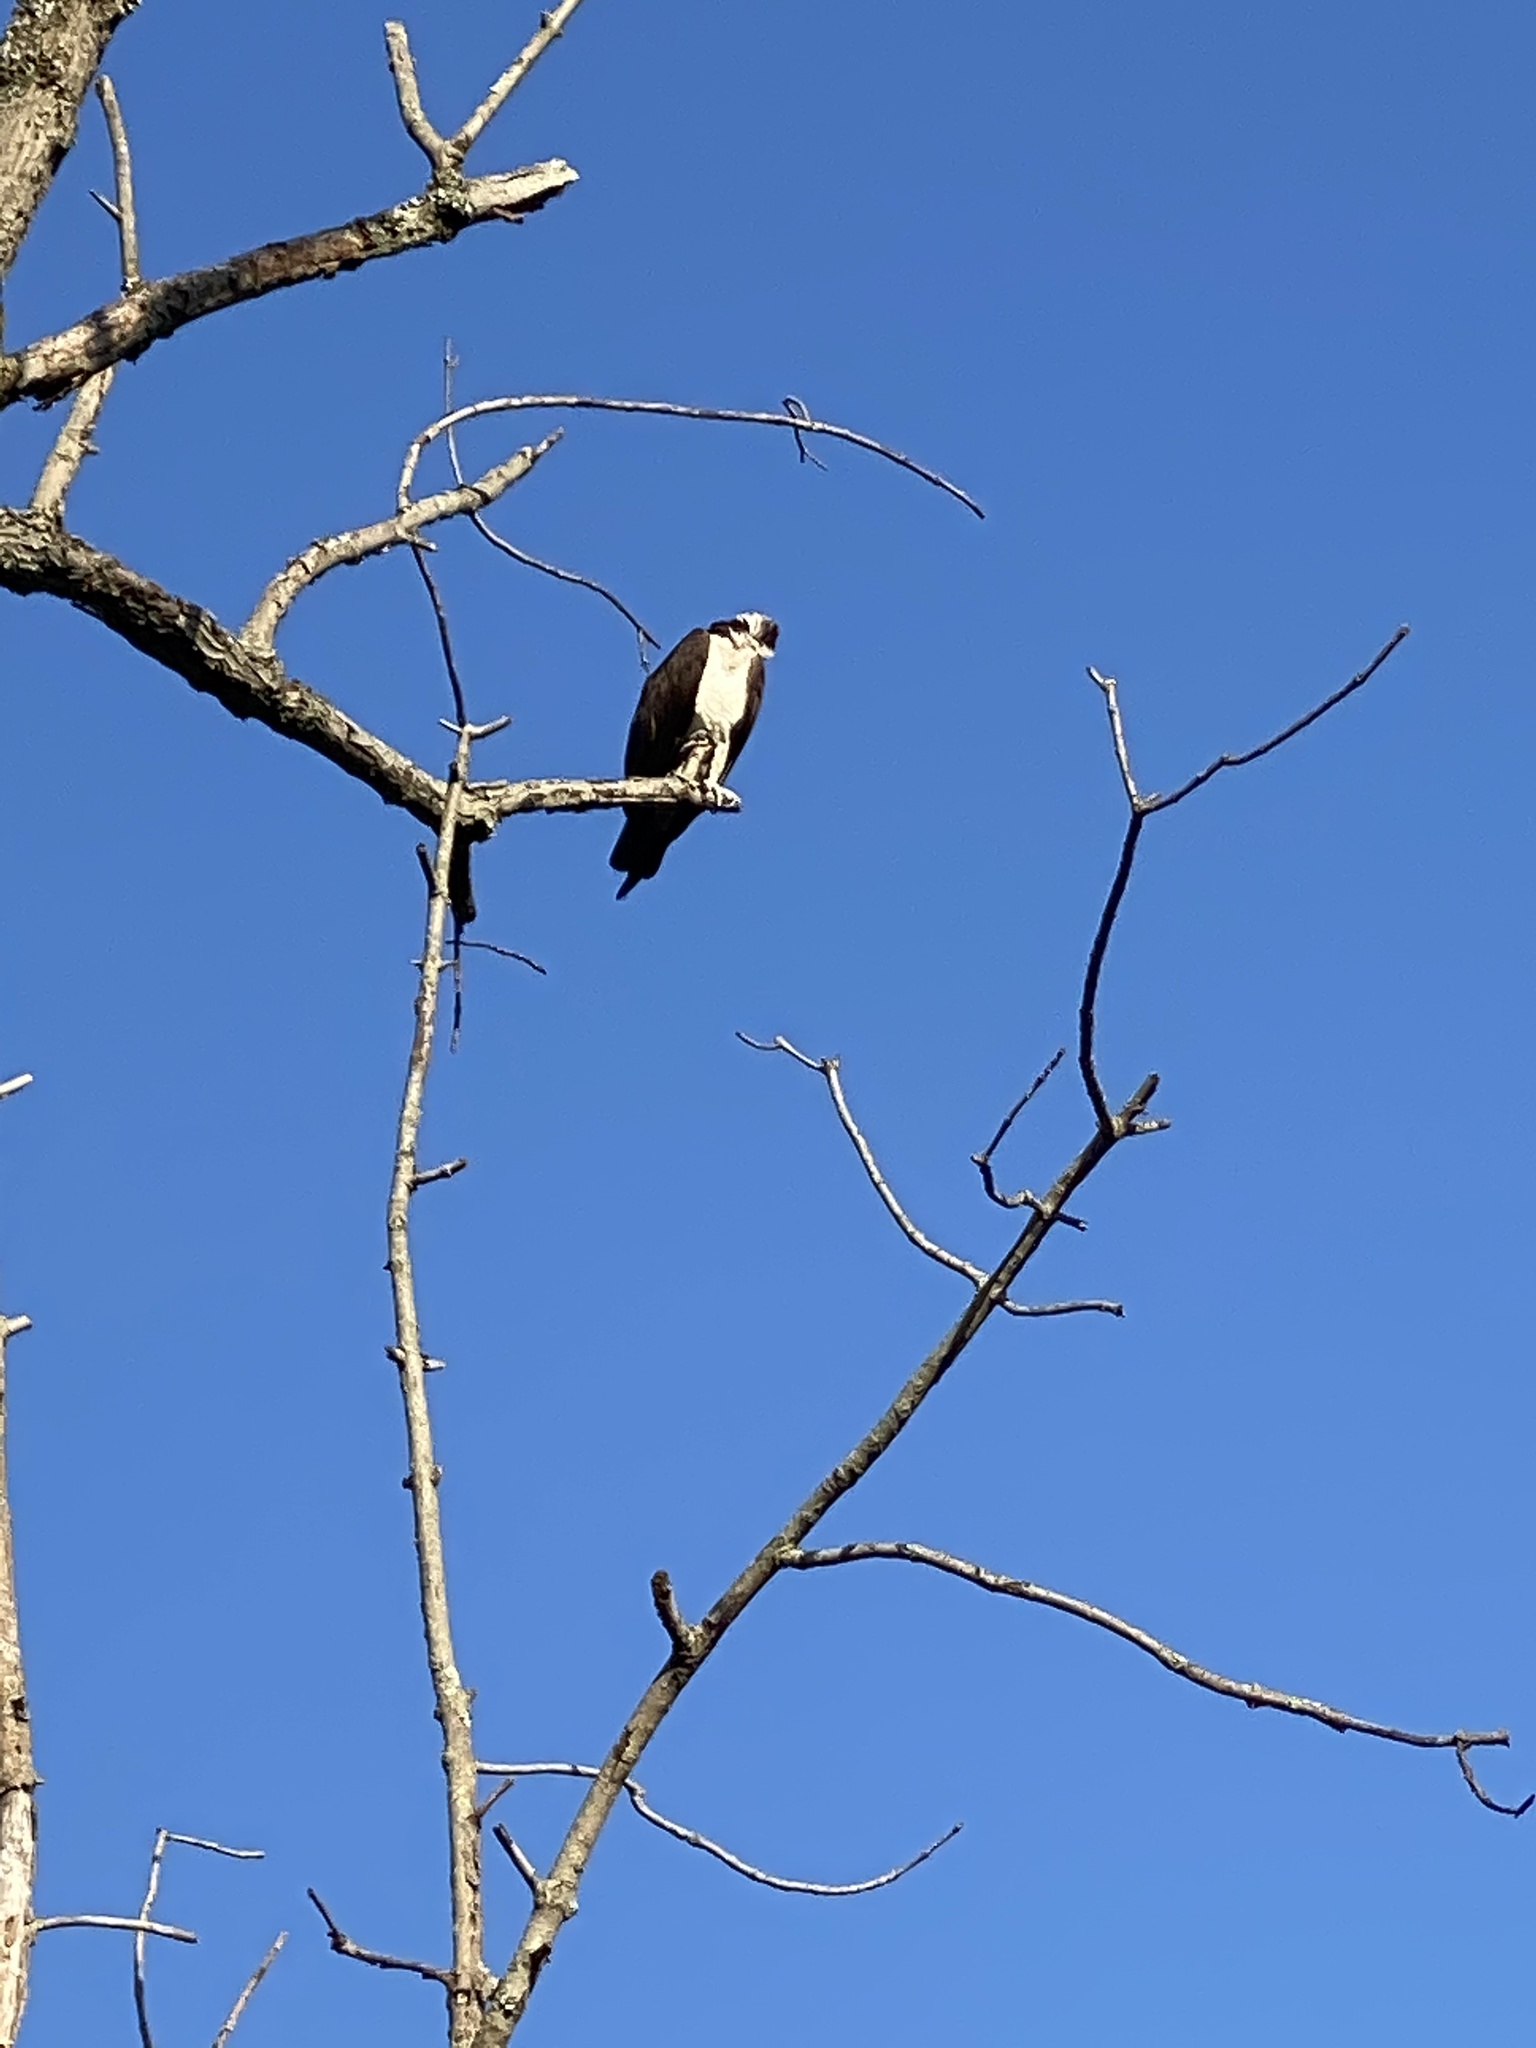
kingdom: Animalia
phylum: Chordata
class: Aves
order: Accipitriformes
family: Pandionidae
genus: Pandion
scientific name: Pandion haliaetus
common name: Osprey
